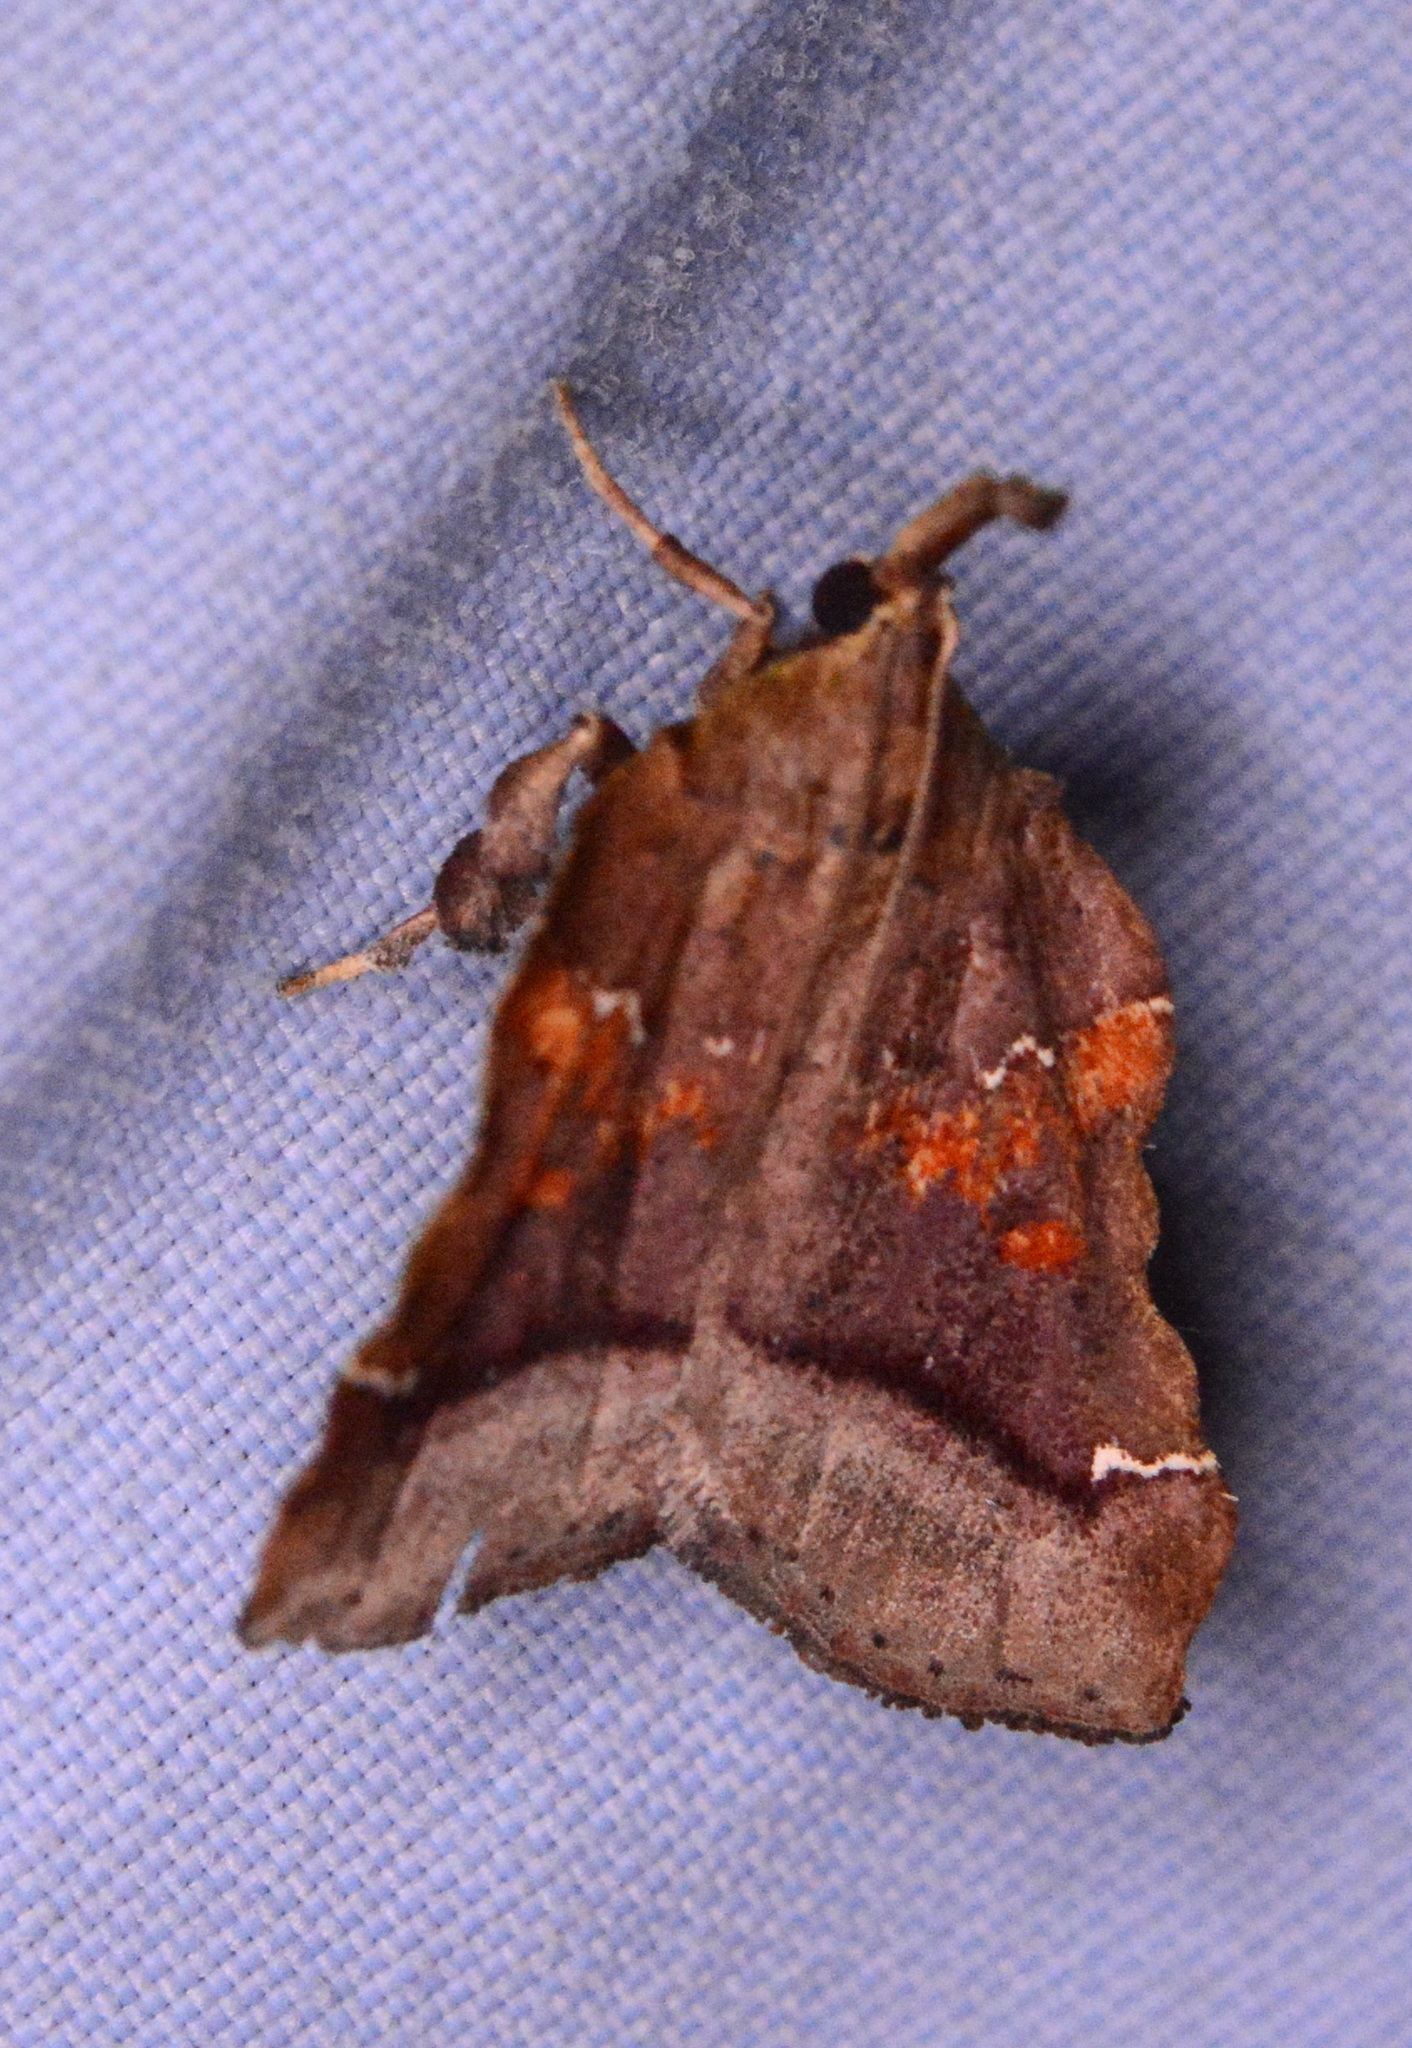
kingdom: Animalia
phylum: Arthropoda
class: Insecta
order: Lepidoptera
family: Pyralidae
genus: Clydonopteron
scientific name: Clydonopteron sacculana
